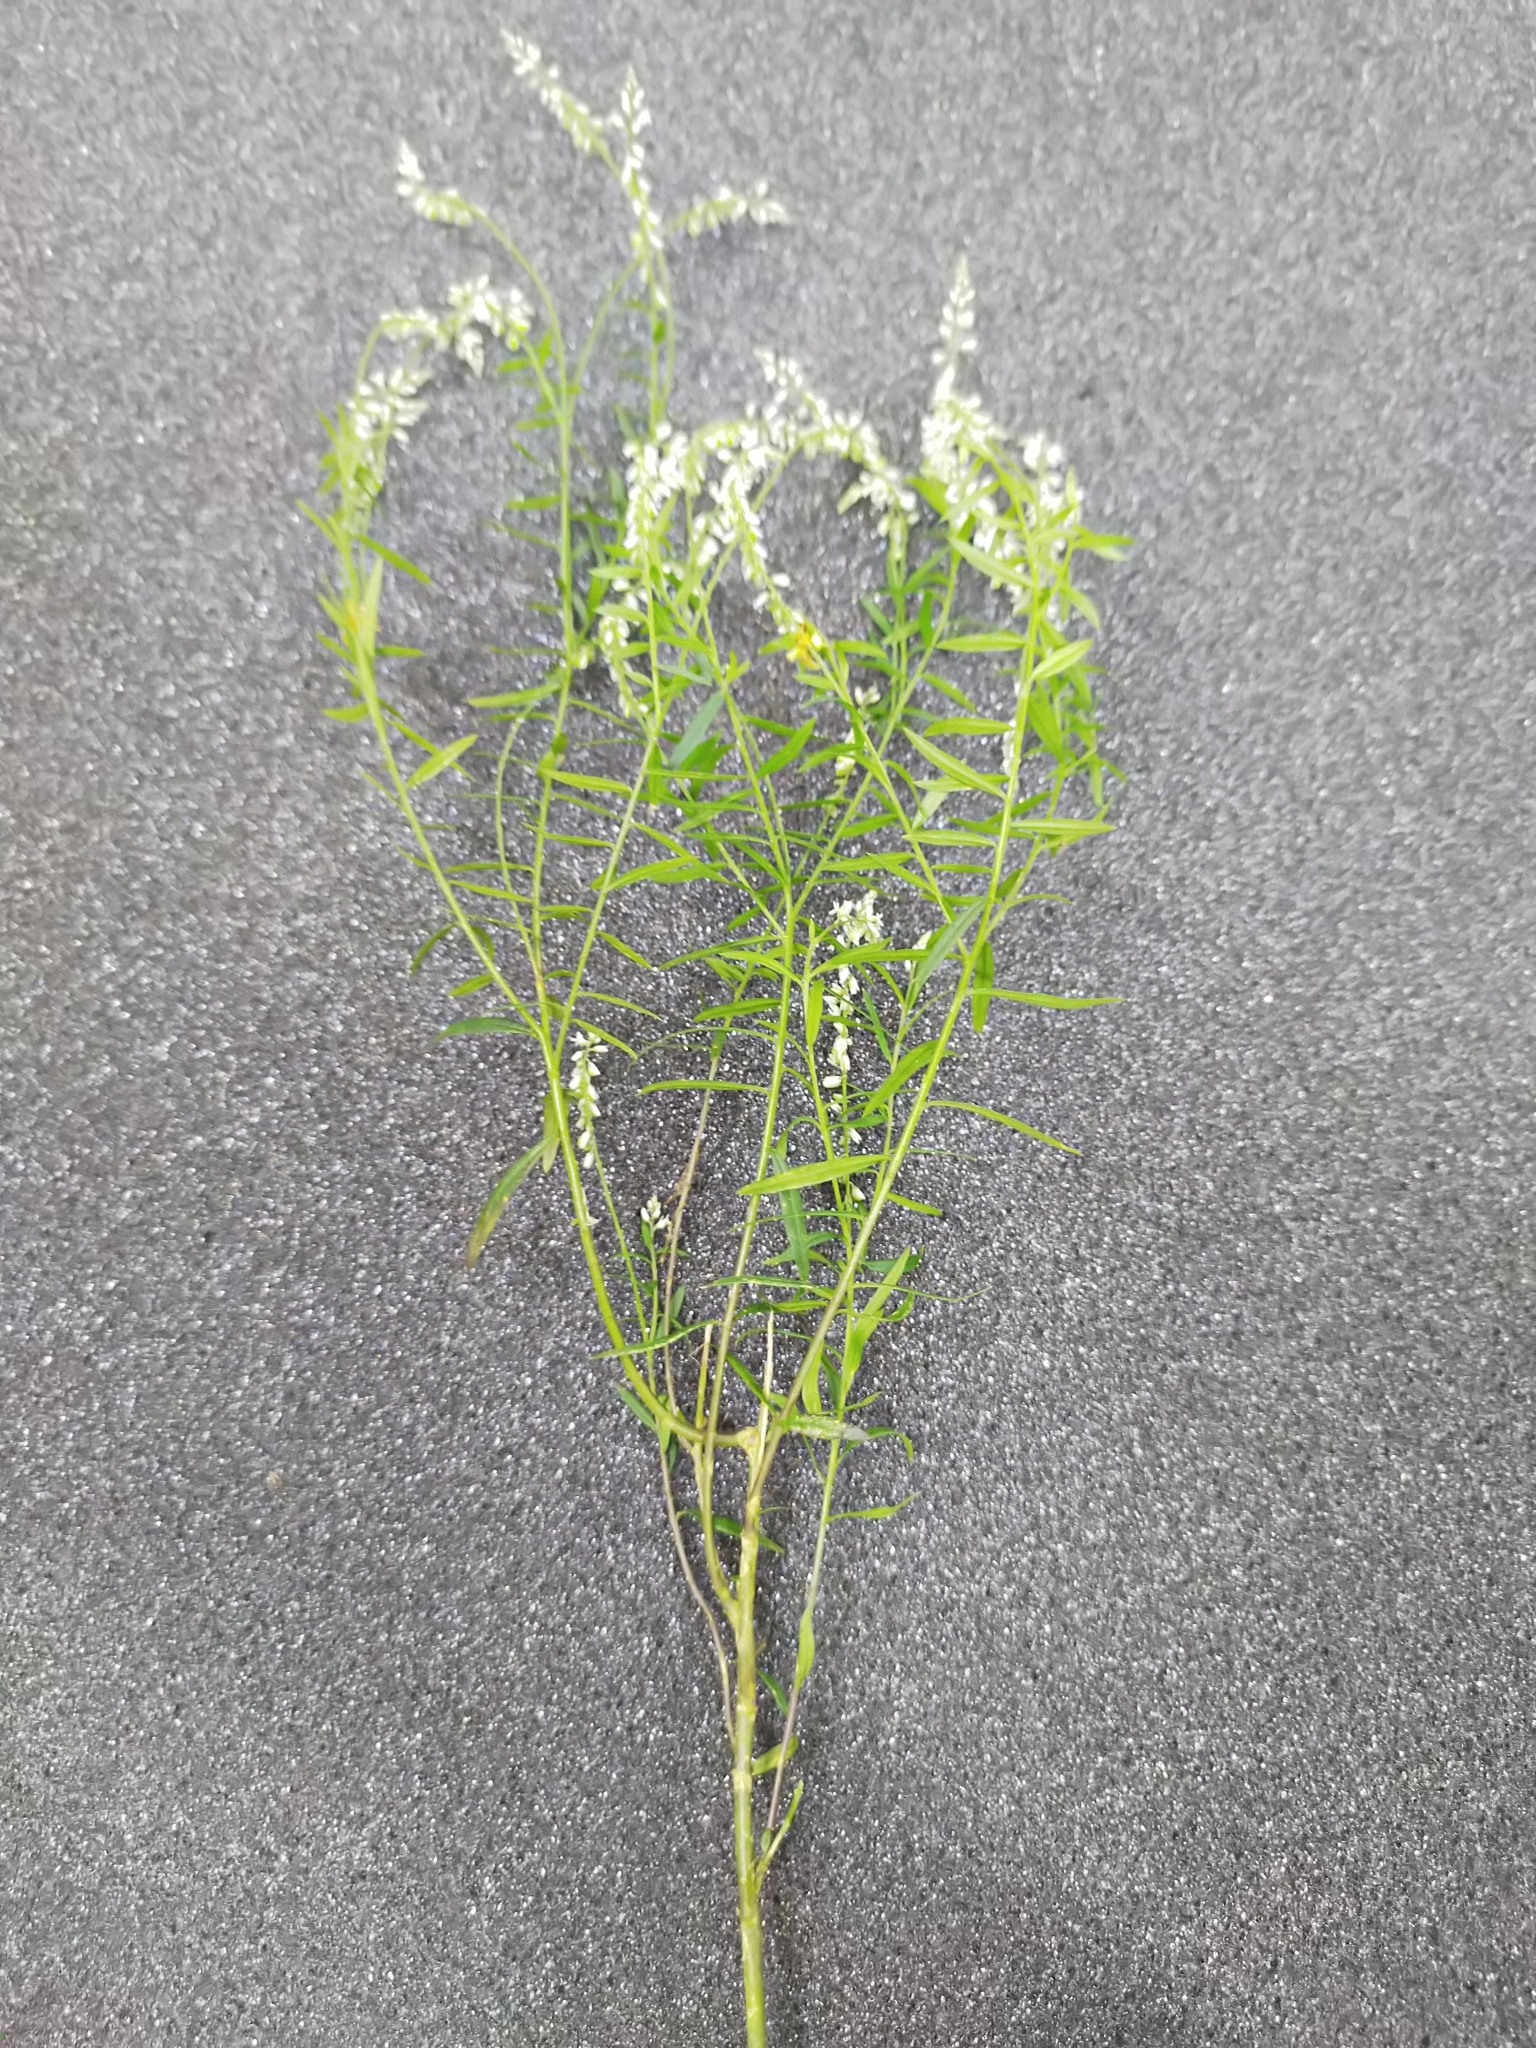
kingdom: Plantae
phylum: Tracheophyta
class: Magnoliopsida
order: Fabales
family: Polygalaceae
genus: Polygala
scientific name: Polygala paniculata
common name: Orosne
